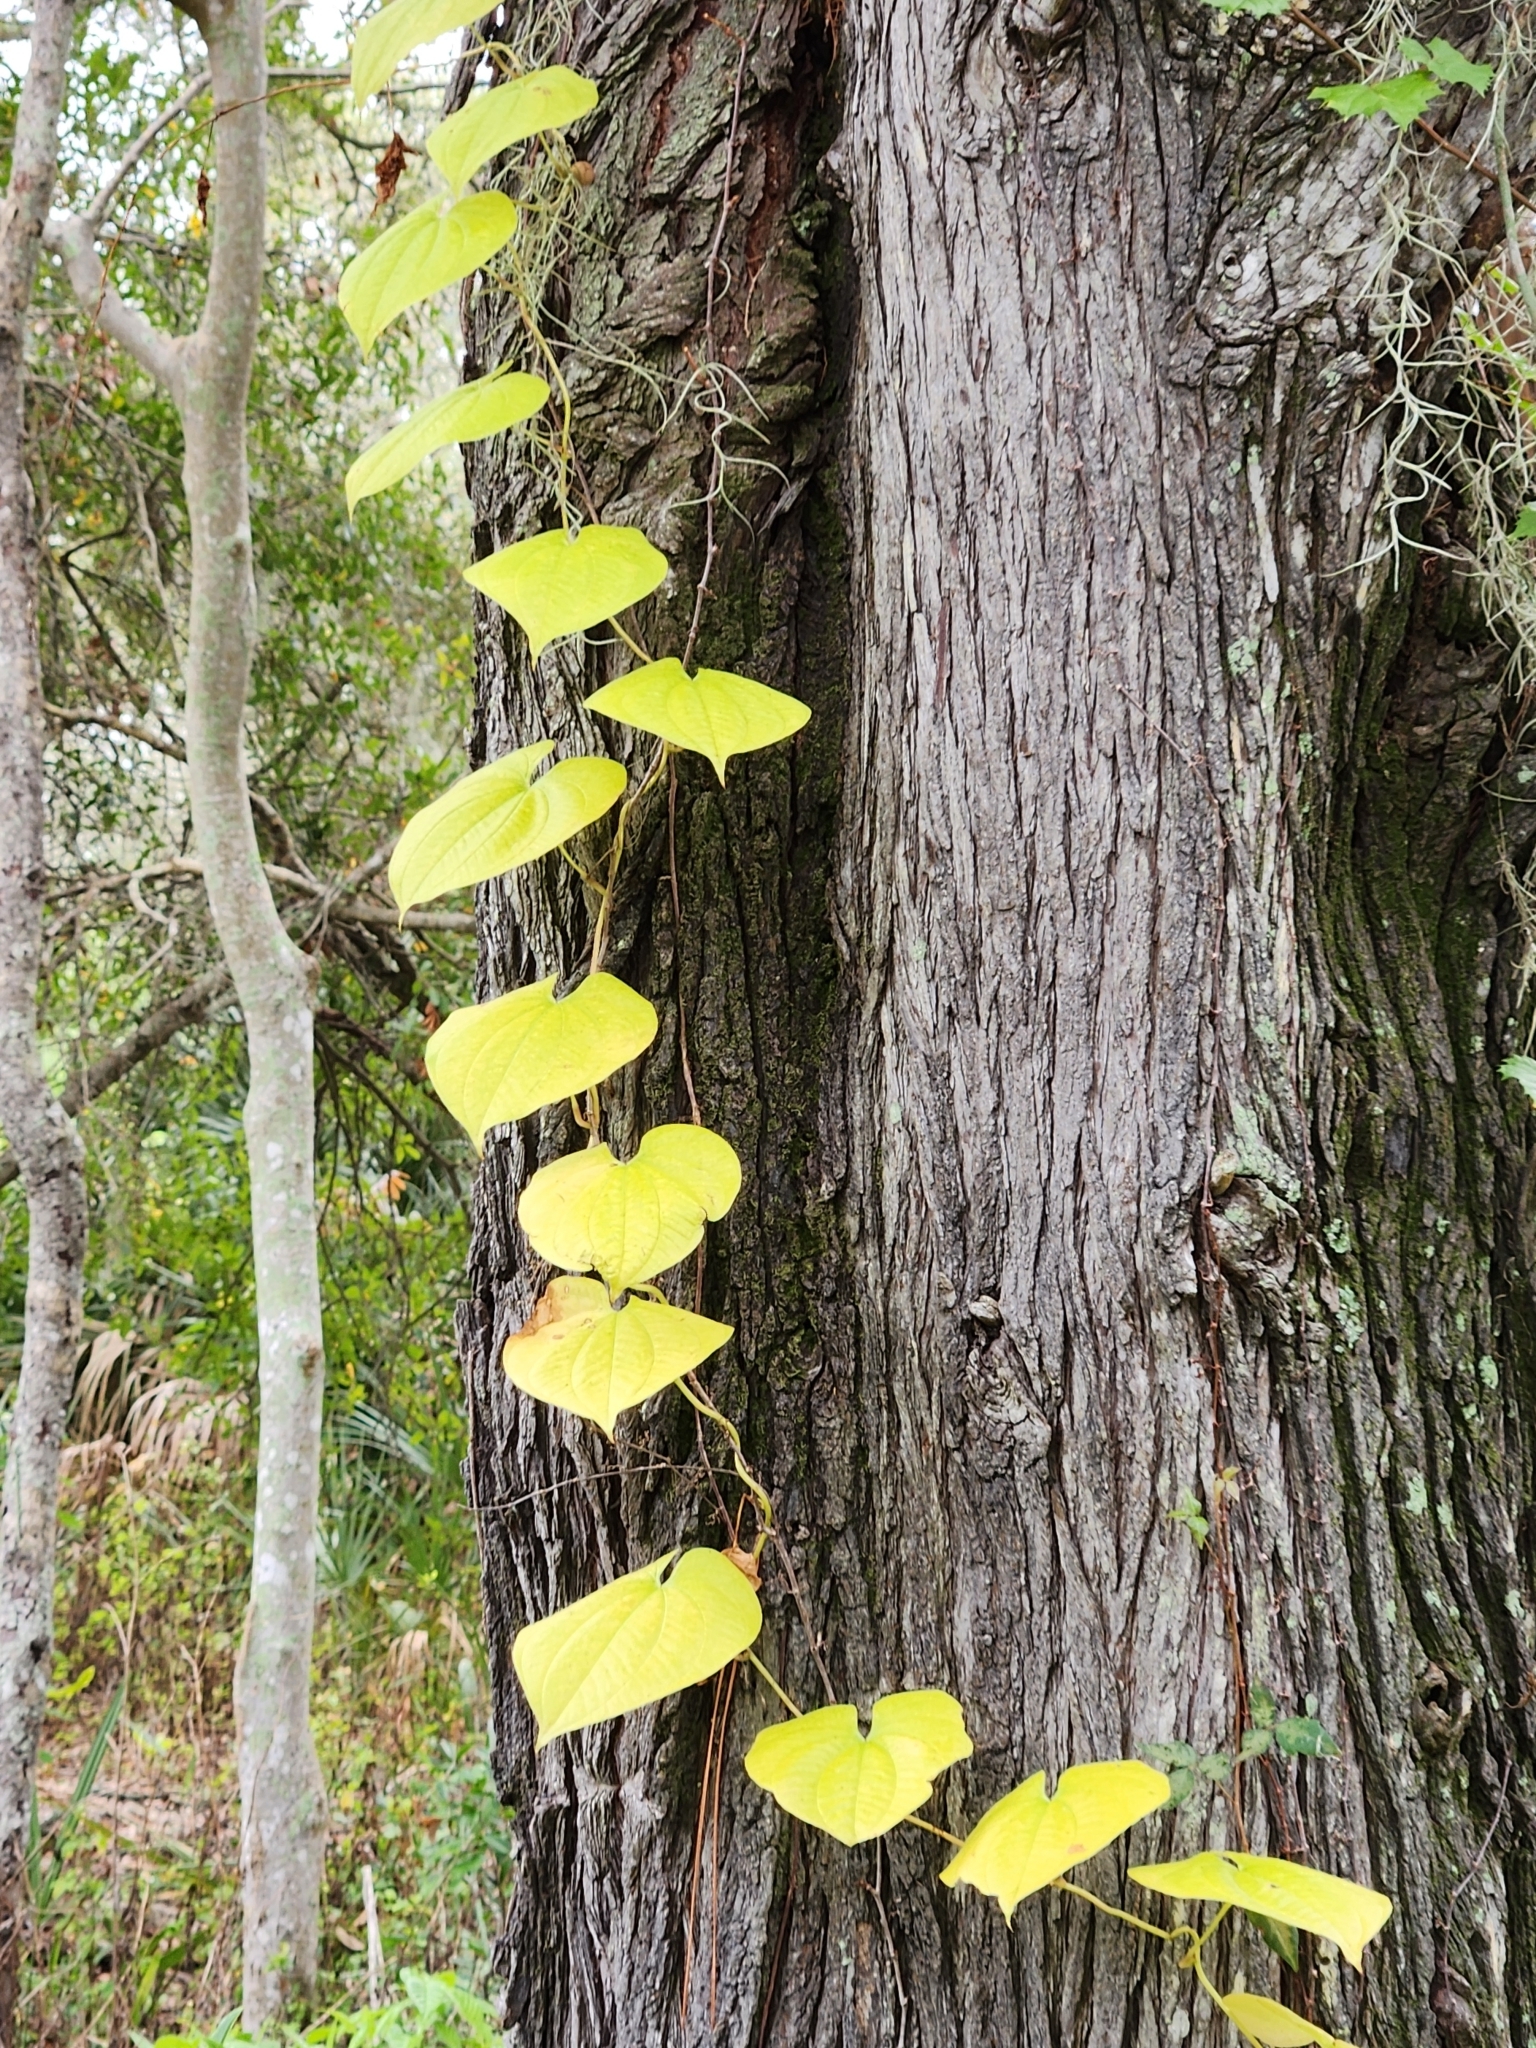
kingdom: Plantae
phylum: Tracheophyta
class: Liliopsida
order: Dioscoreales
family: Dioscoreaceae
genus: Dioscorea
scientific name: Dioscorea bulbifera
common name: Air yam
